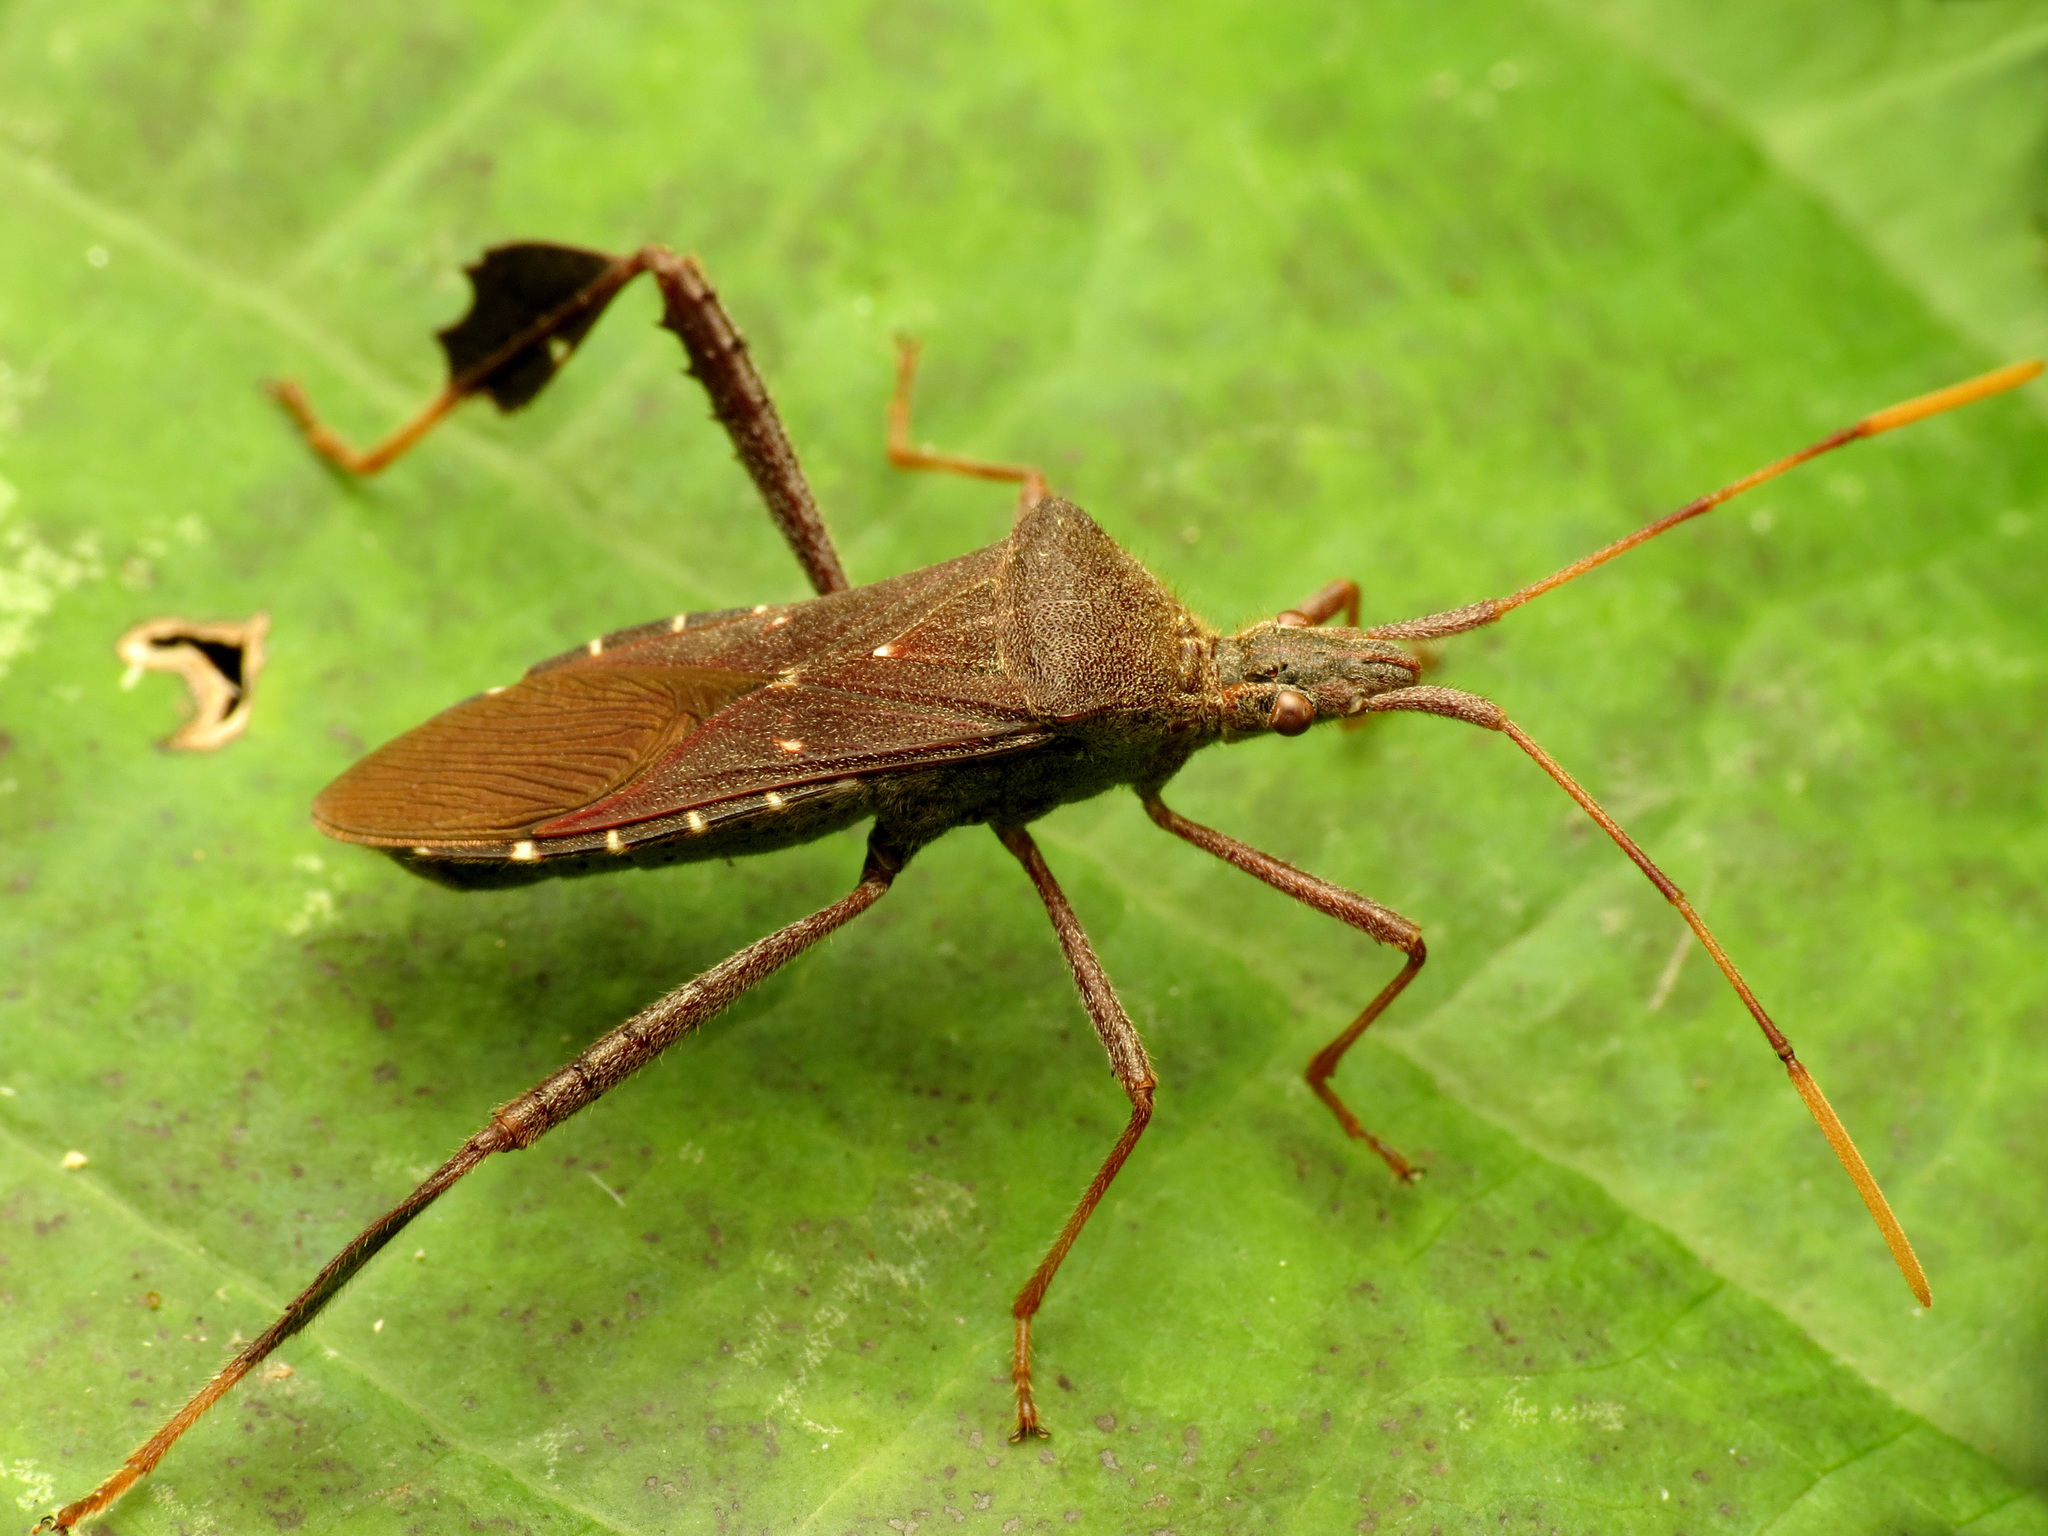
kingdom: Animalia
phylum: Arthropoda
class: Insecta
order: Hemiptera
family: Coreidae
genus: Leptoglossus
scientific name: Leptoglossus oppositus
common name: Northern leaf-footed bug
